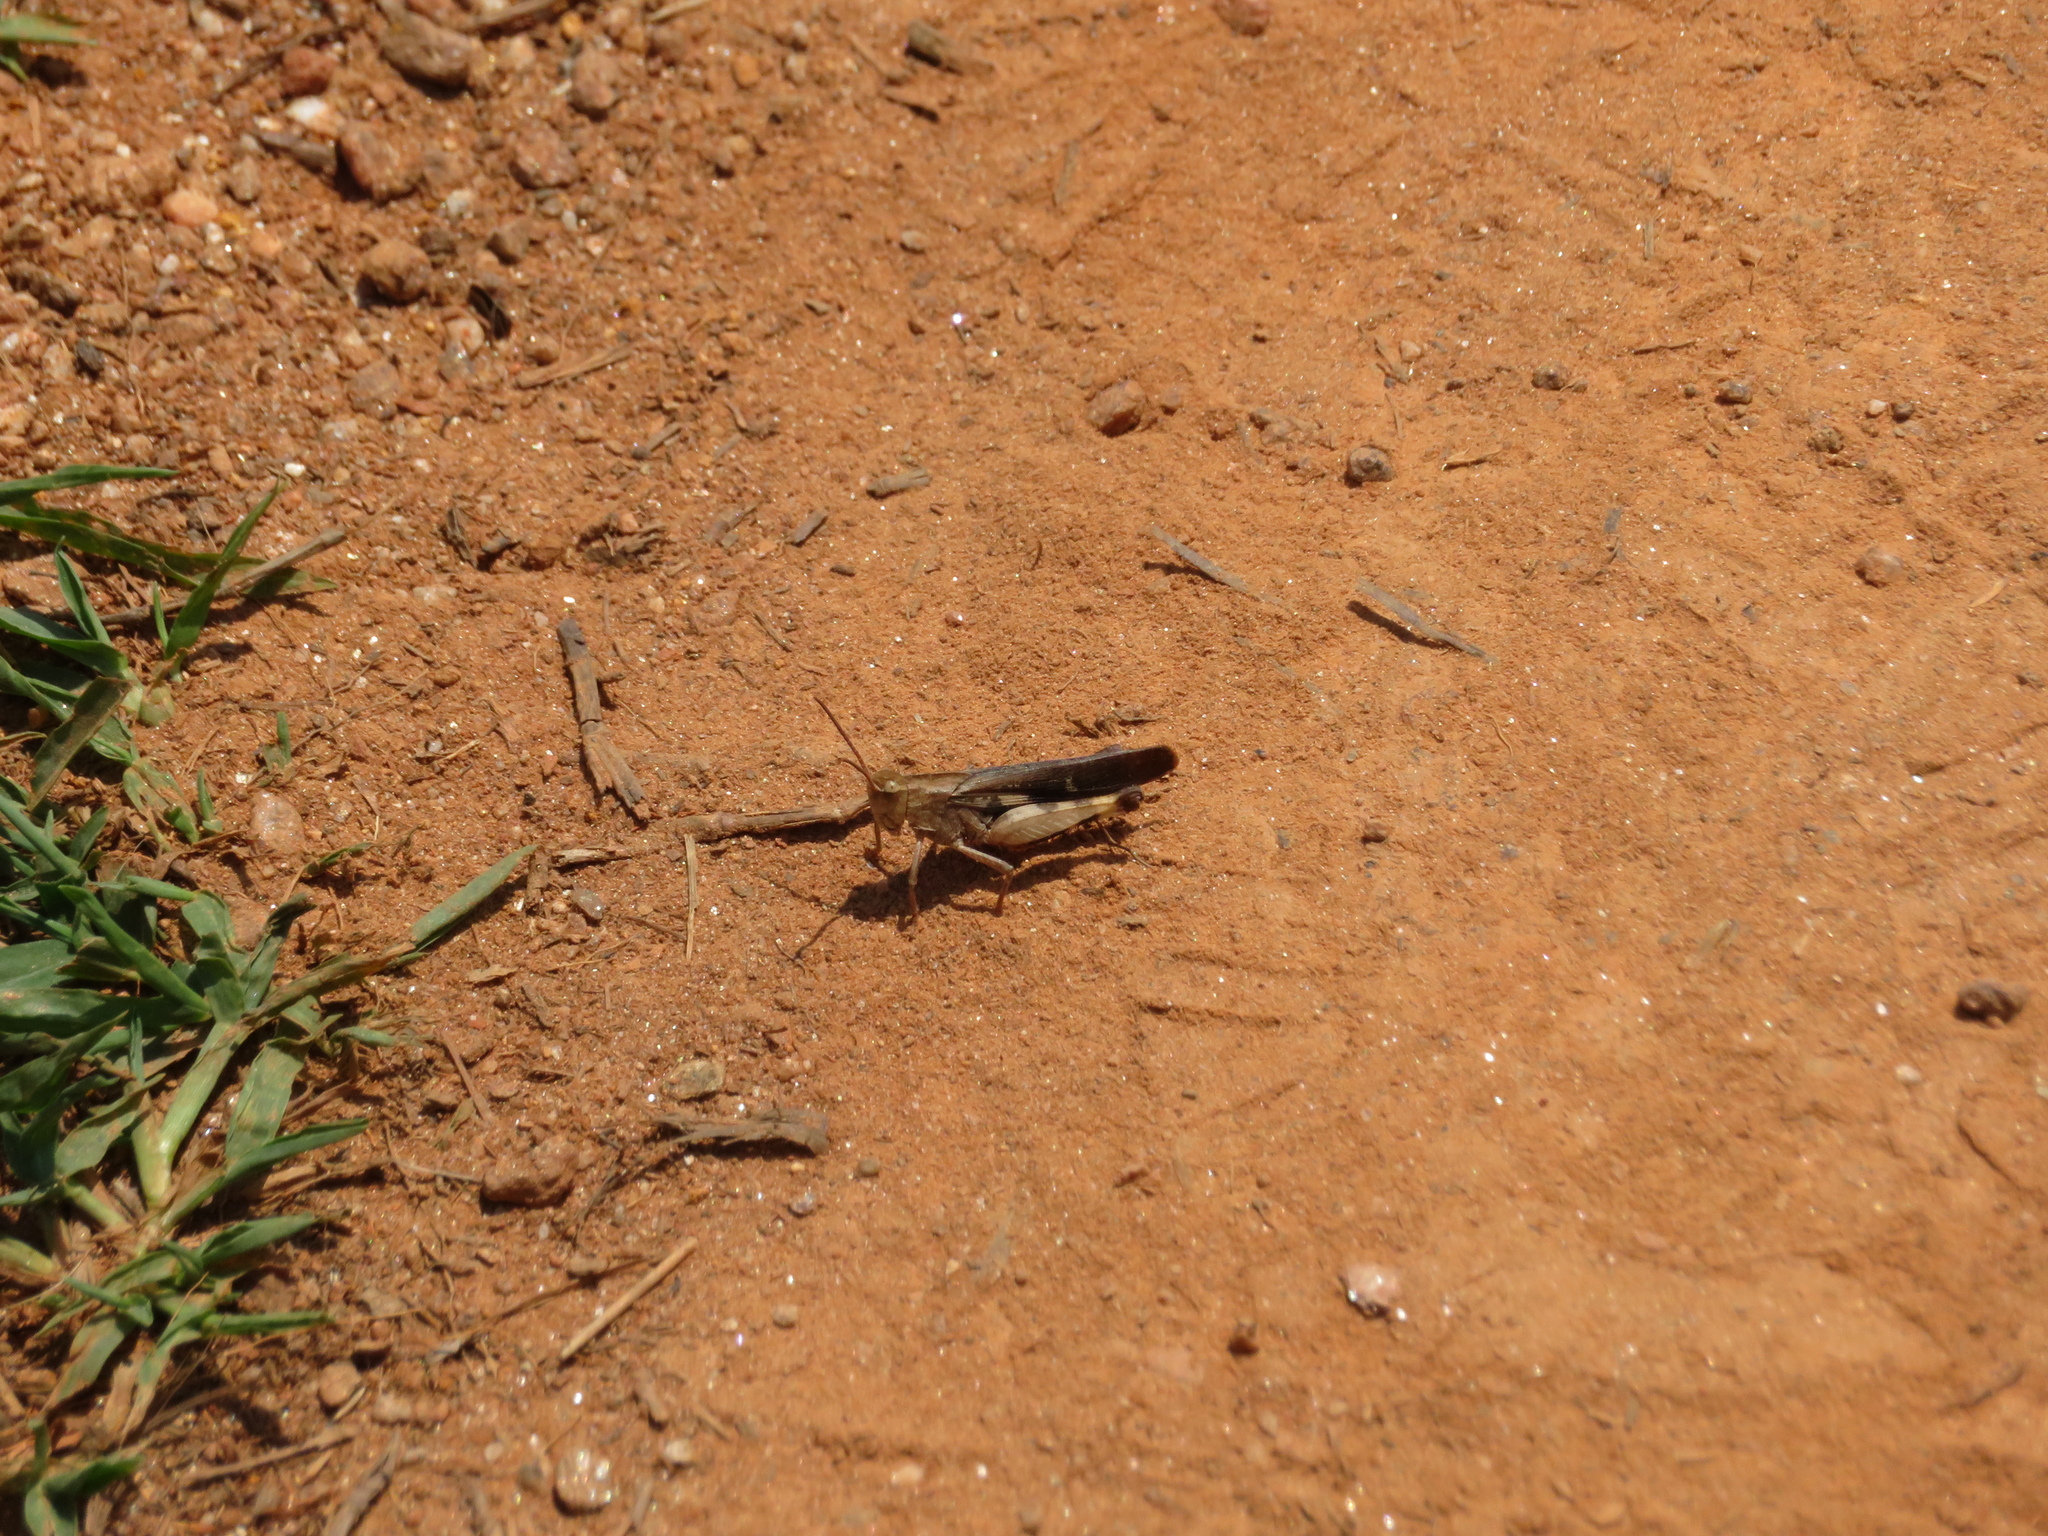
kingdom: Animalia
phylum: Arthropoda
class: Insecta
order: Orthoptera
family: Acrididae
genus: Chortophaga
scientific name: Chortophaga viridifasciata
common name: Green-striped grasshopper
